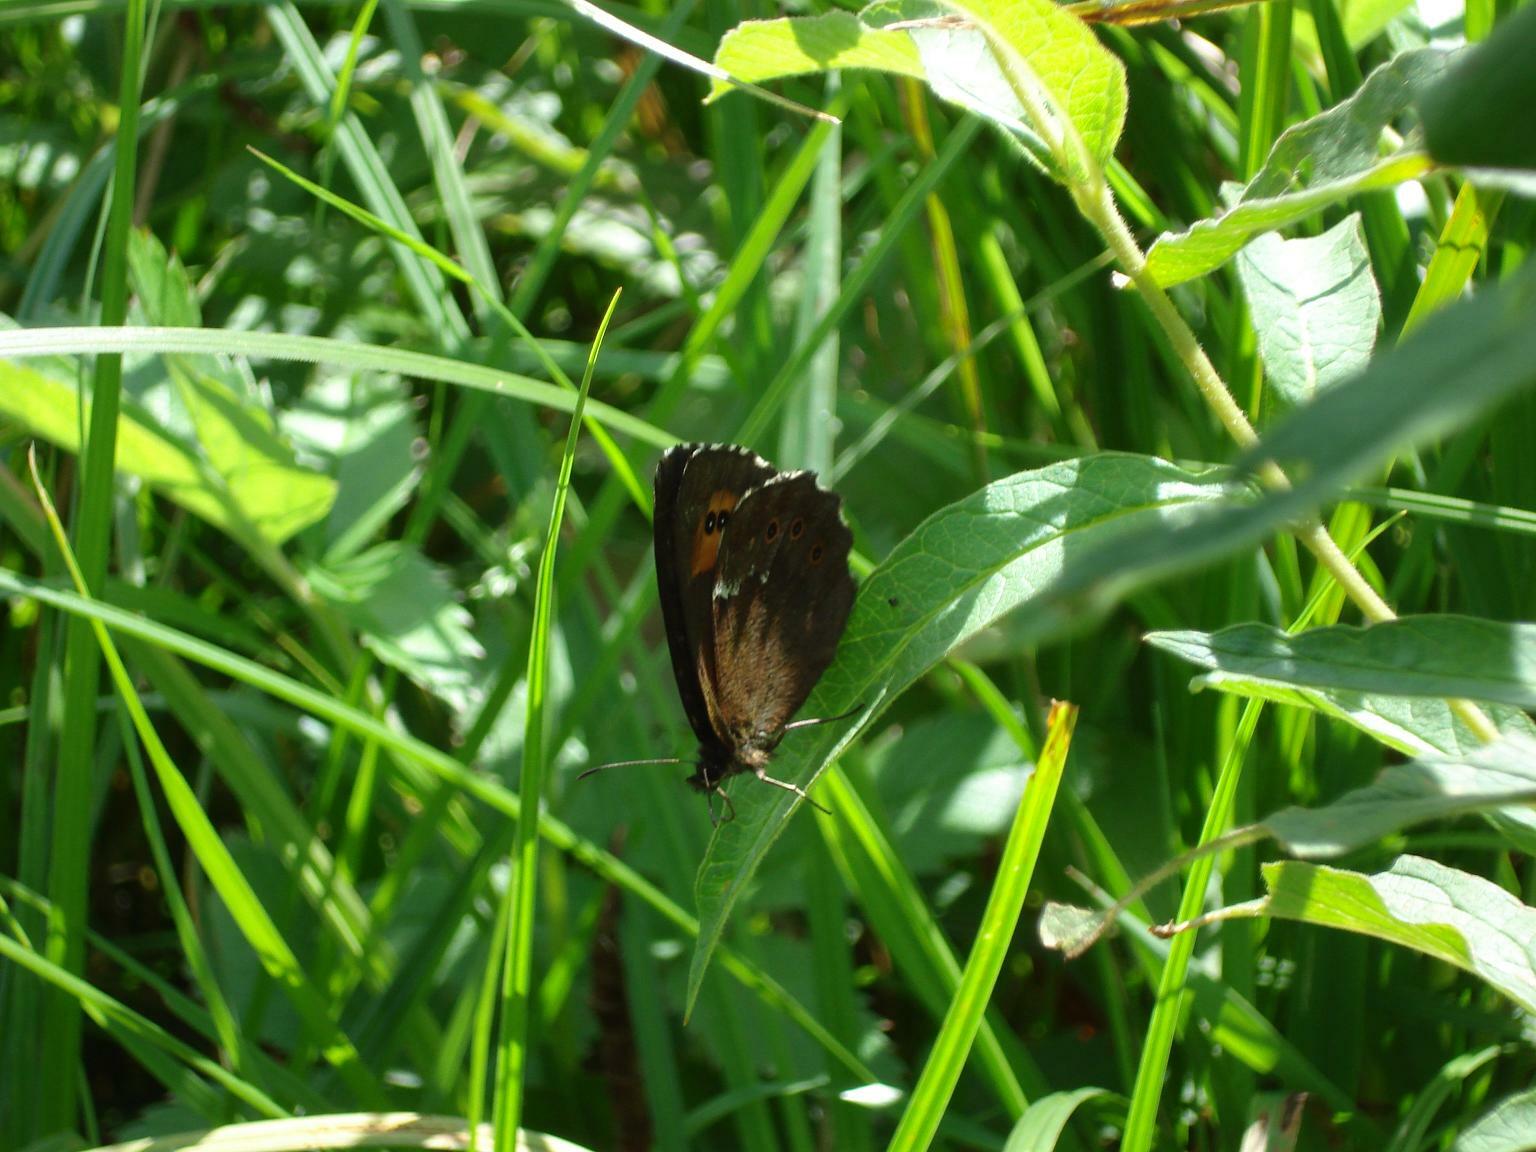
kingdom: Animalia
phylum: Arthropoda
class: Insecta
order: Lepidoptera
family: Nymphalidae
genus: Erebia
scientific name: Erebia ligea
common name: Arran brown
